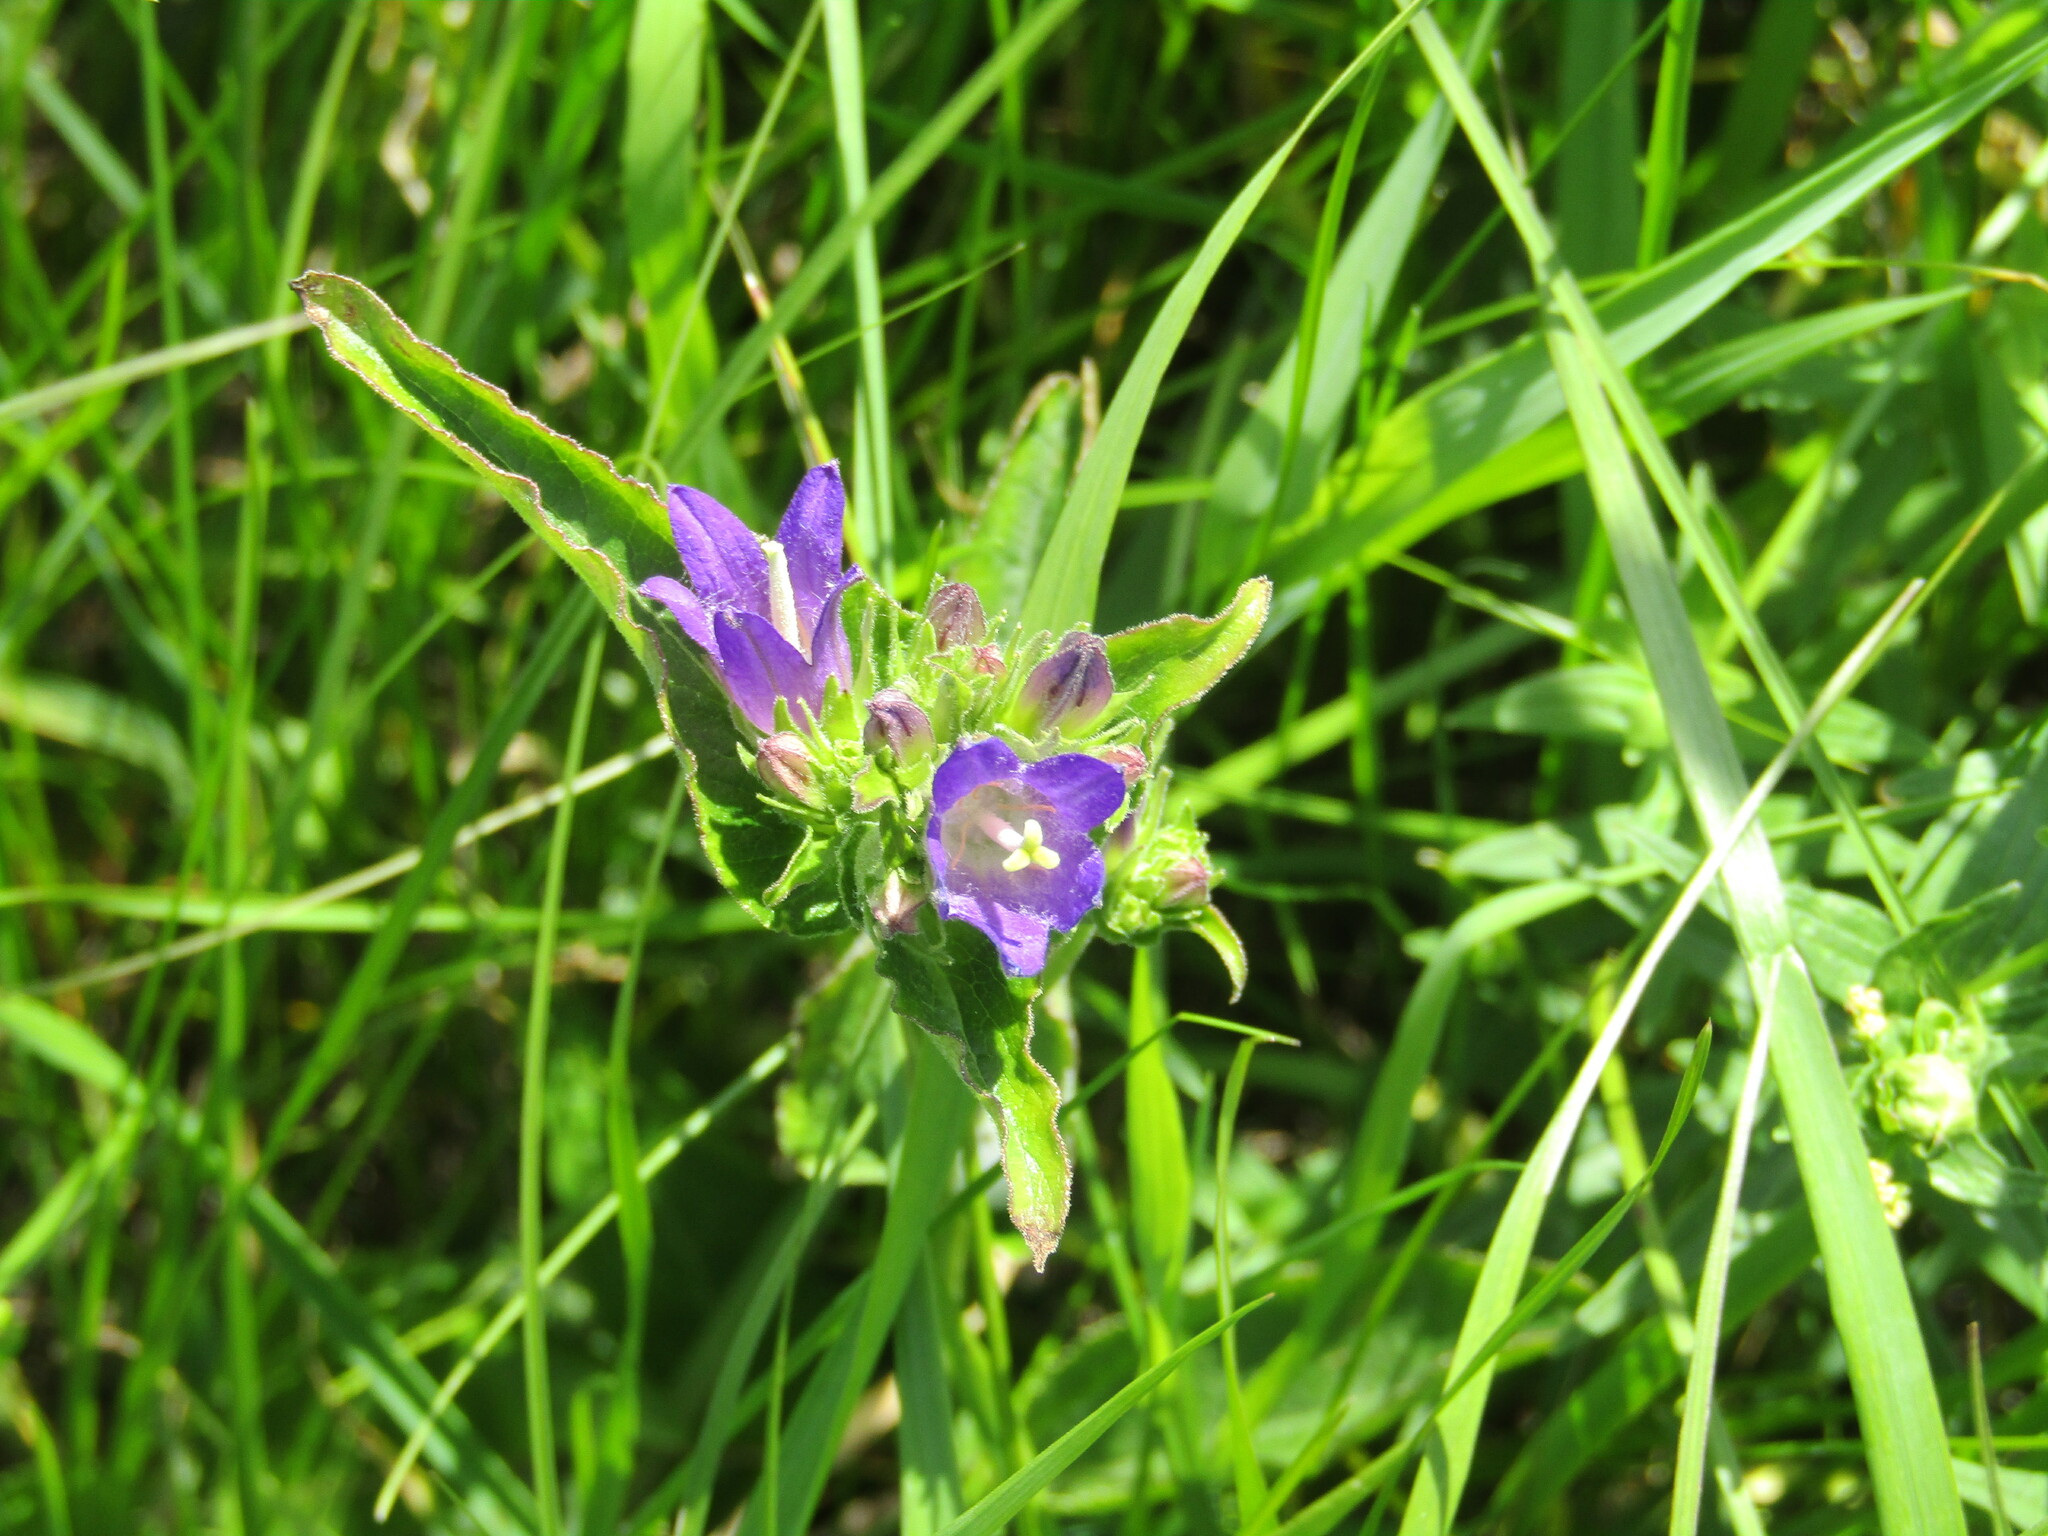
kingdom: Plantae
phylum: Tracheophyta
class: Magnoliopsida
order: Asterales
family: Campanulaceae
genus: Campanula
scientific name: Campanula glomerata
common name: Clustered bellflower
